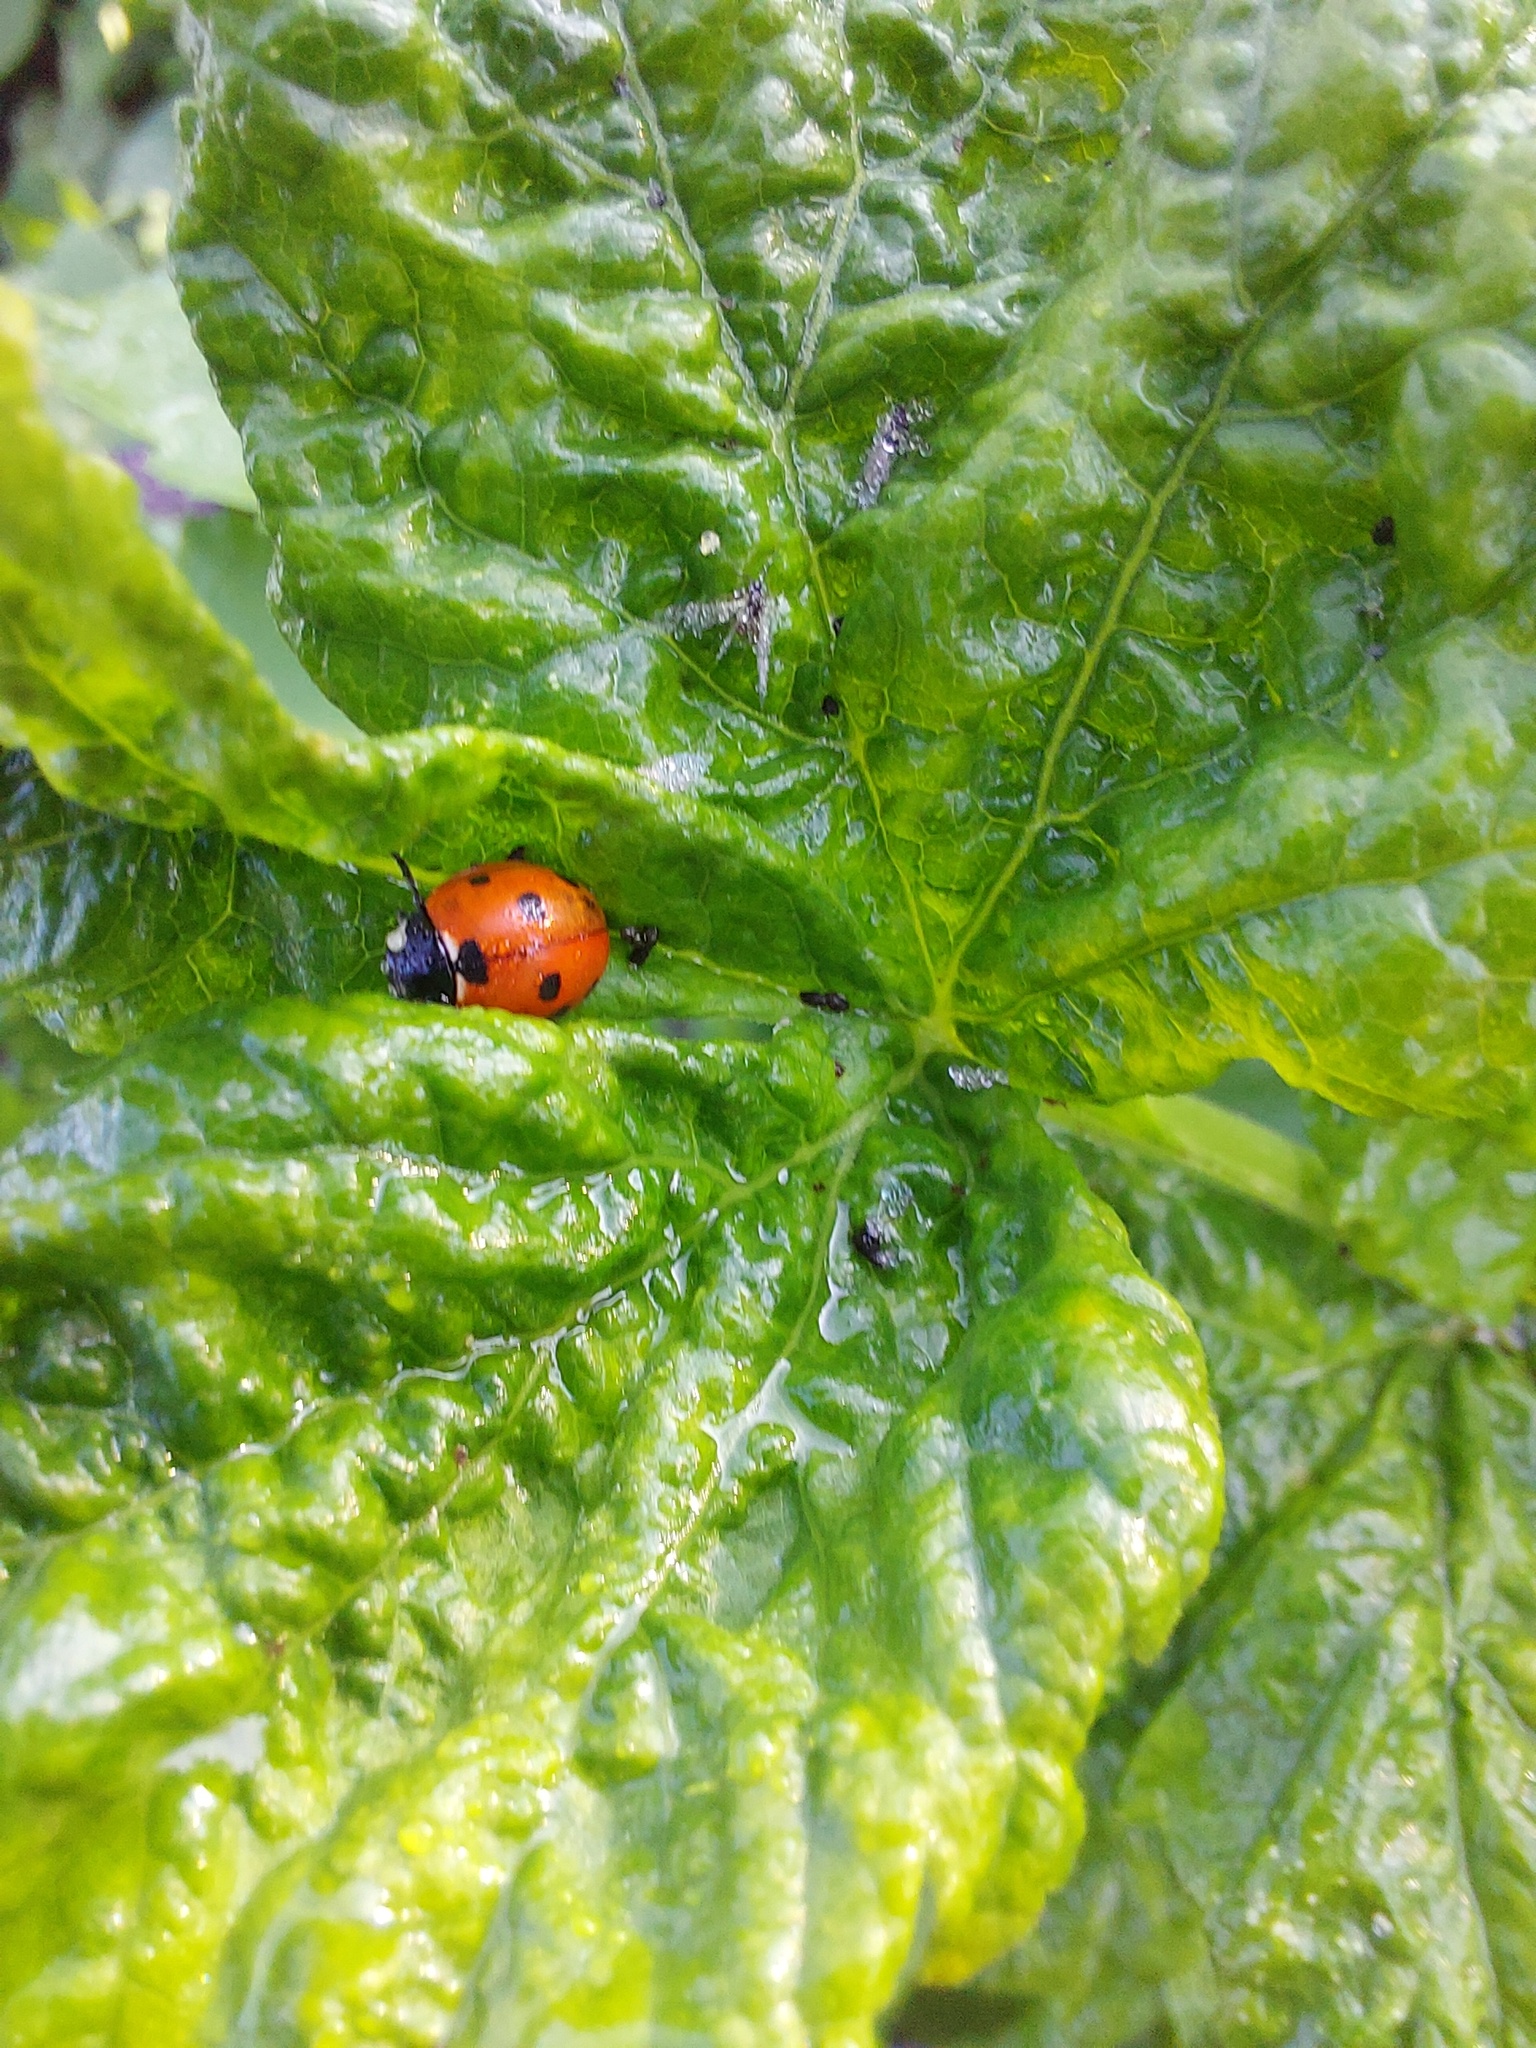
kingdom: Animalia
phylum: Arthropoda
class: Insecta
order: Coleoptera
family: Coccinellidae
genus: Coccinella
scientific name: Coccinella septempunctata
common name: Sevenspotted lady beetle
